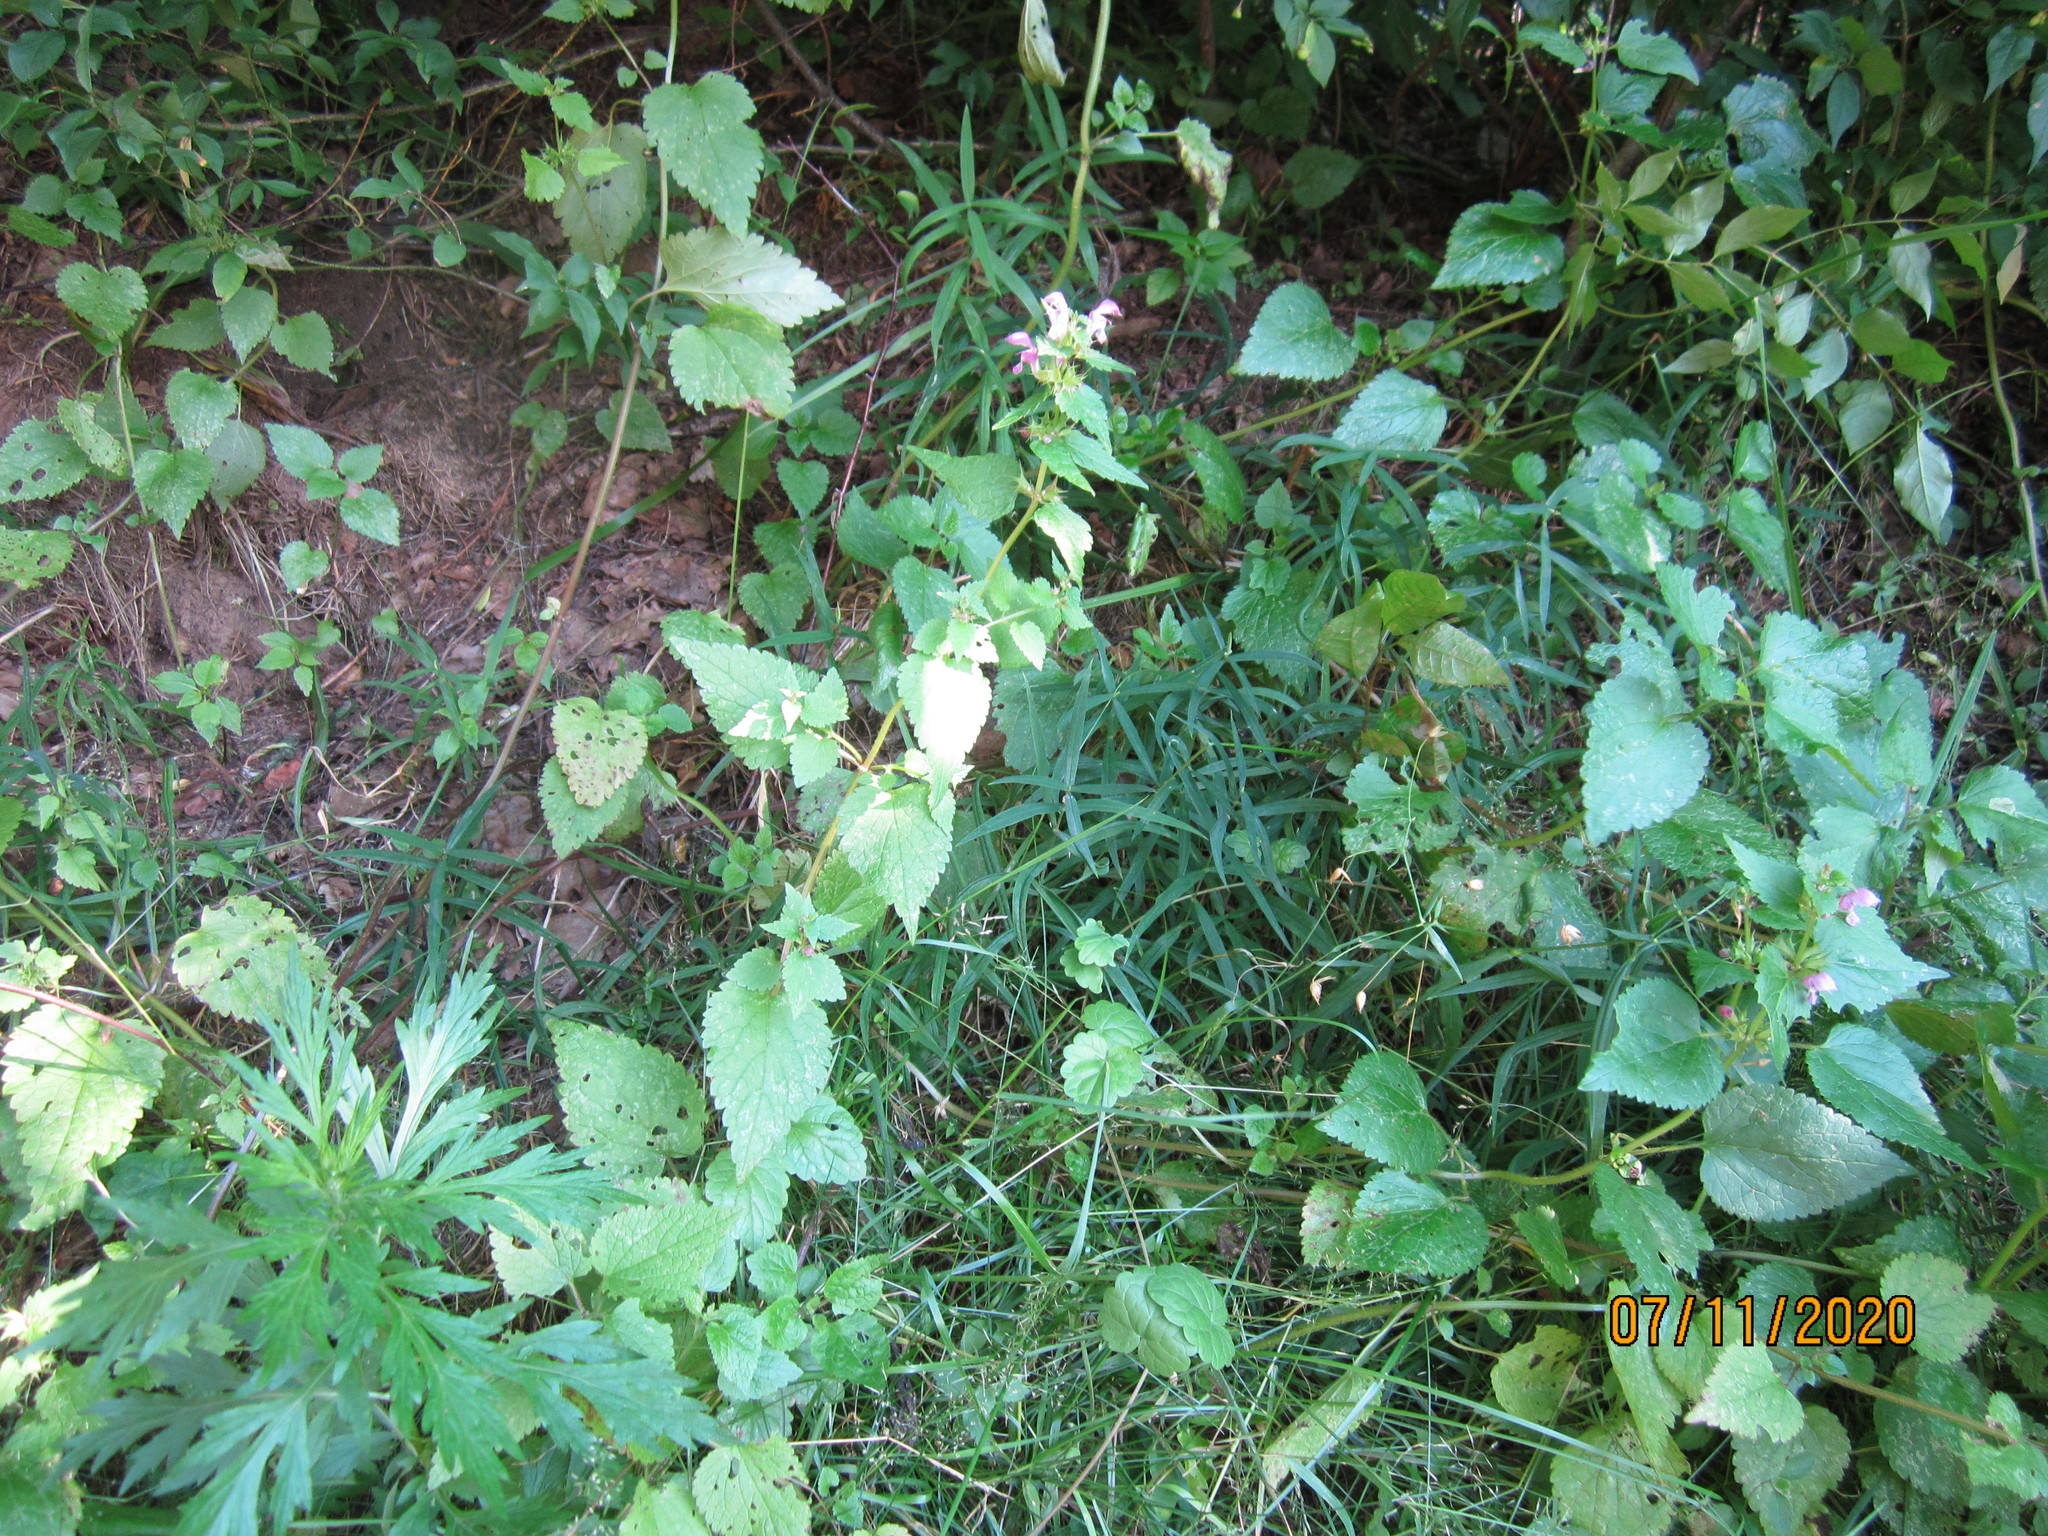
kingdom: Plantae
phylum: Tracheophyta
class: Magnoliopsida
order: Lamiales
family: Lamiaceae
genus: Lamium
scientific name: Lamium maculatum
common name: Spotted dead-nettle
